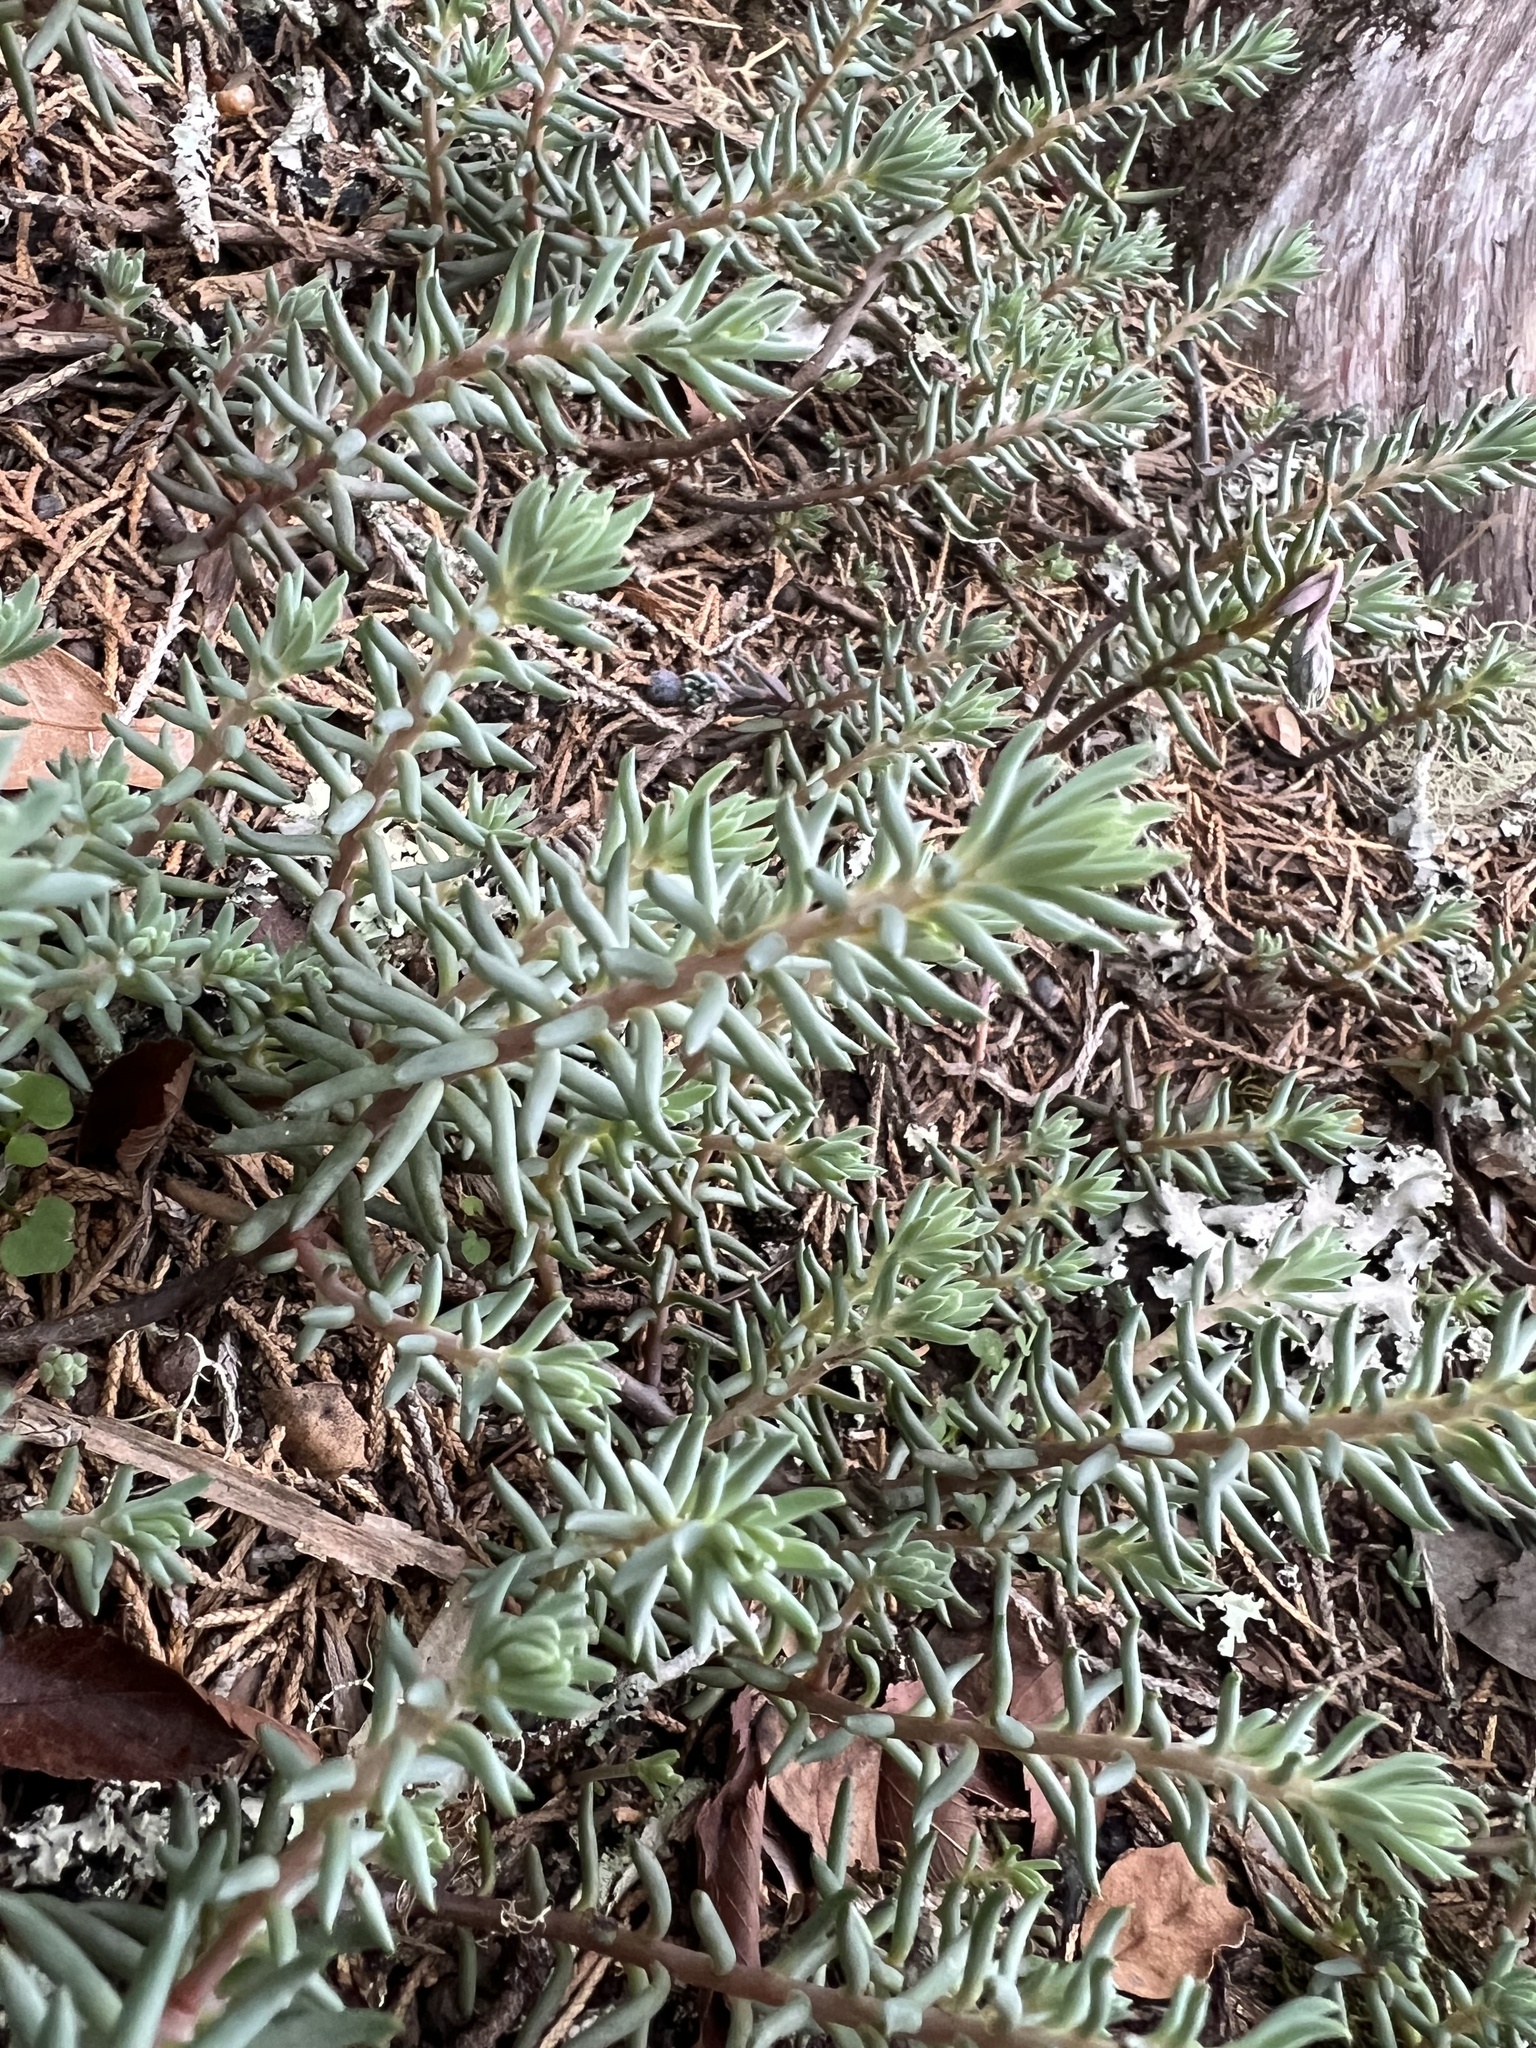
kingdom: Plantae
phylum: Tracheophyta
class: Magnoliopsida
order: Saxifragales
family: Crassulaceae
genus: Petrosedum
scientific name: Petrosedum rupestre
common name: Jenny's stonecrop
